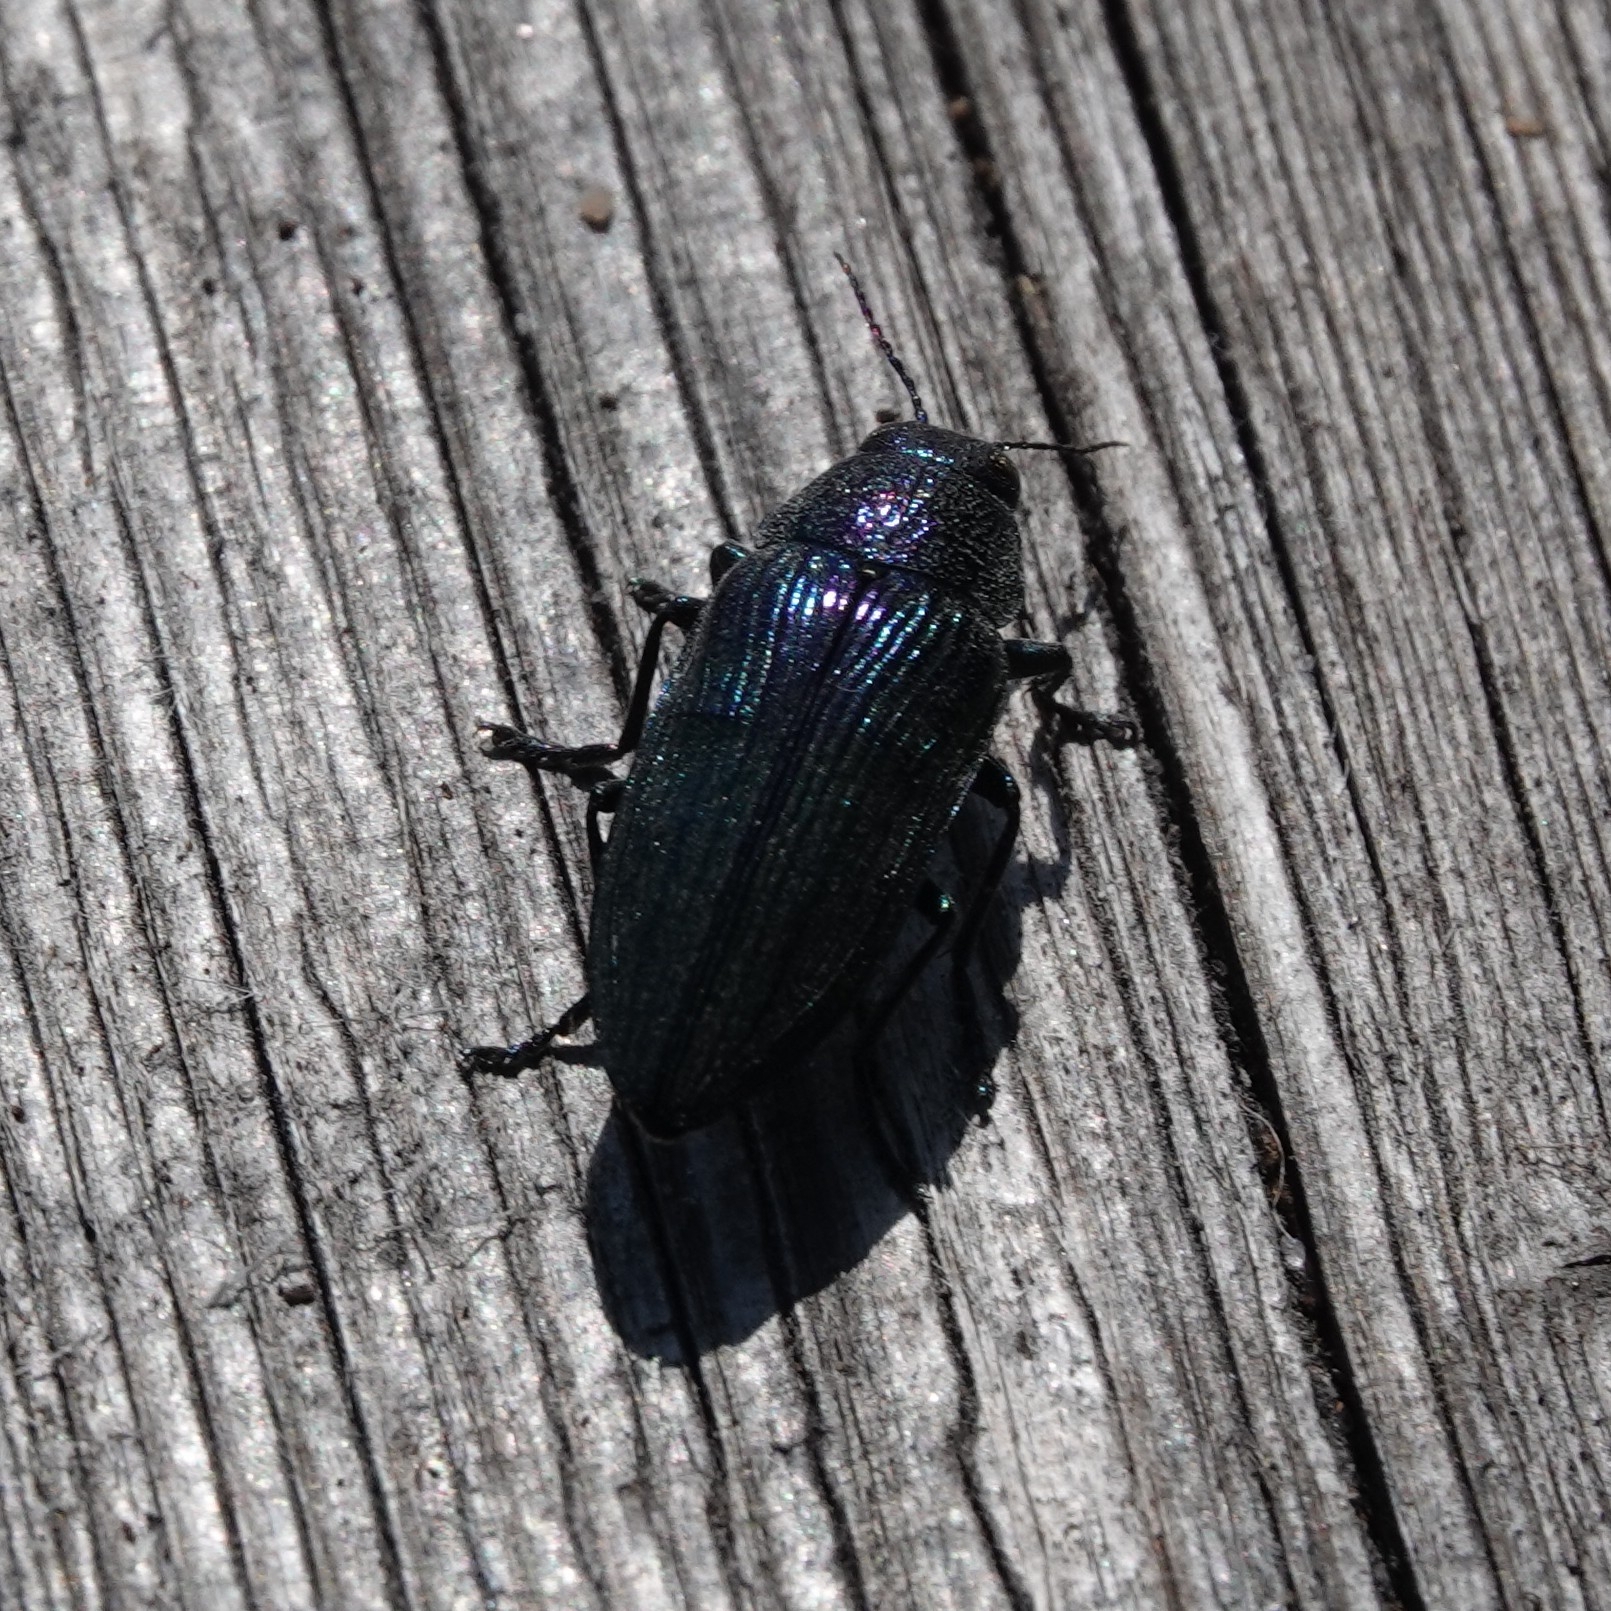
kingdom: Animalia
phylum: Arthropoda
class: Insecta
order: Coleoptera
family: Buprestidae
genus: Buprestis
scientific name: Buprestis rustica
